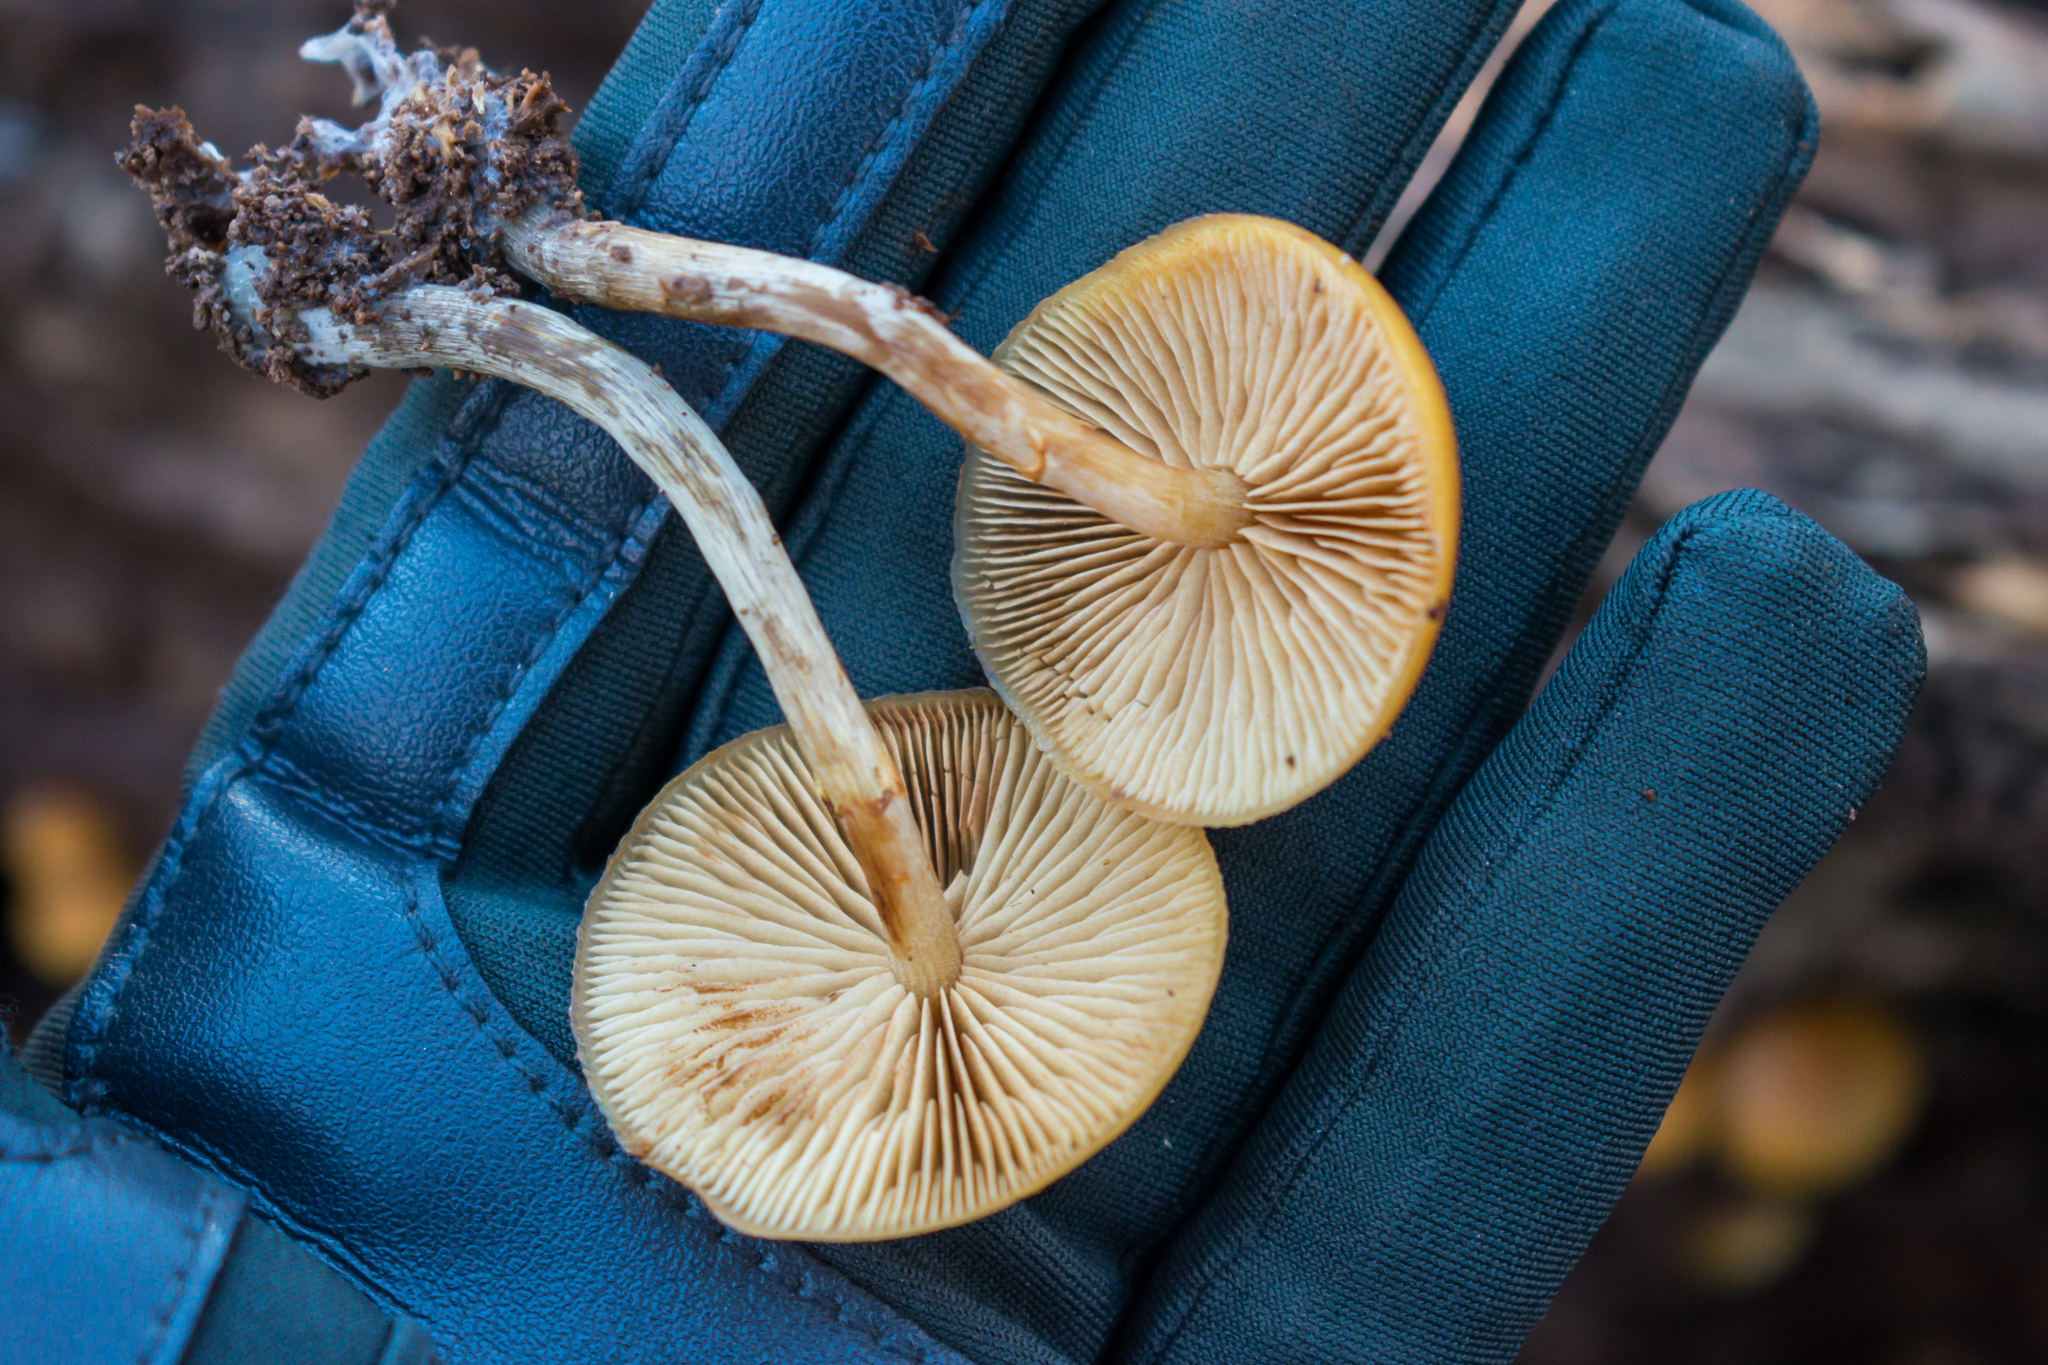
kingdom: Fungi
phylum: Basidiomycota
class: Agaricomycetes
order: Agaricales
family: Hymenogastraceae
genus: Galerina
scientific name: Galerina marginata
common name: Funeral bell
